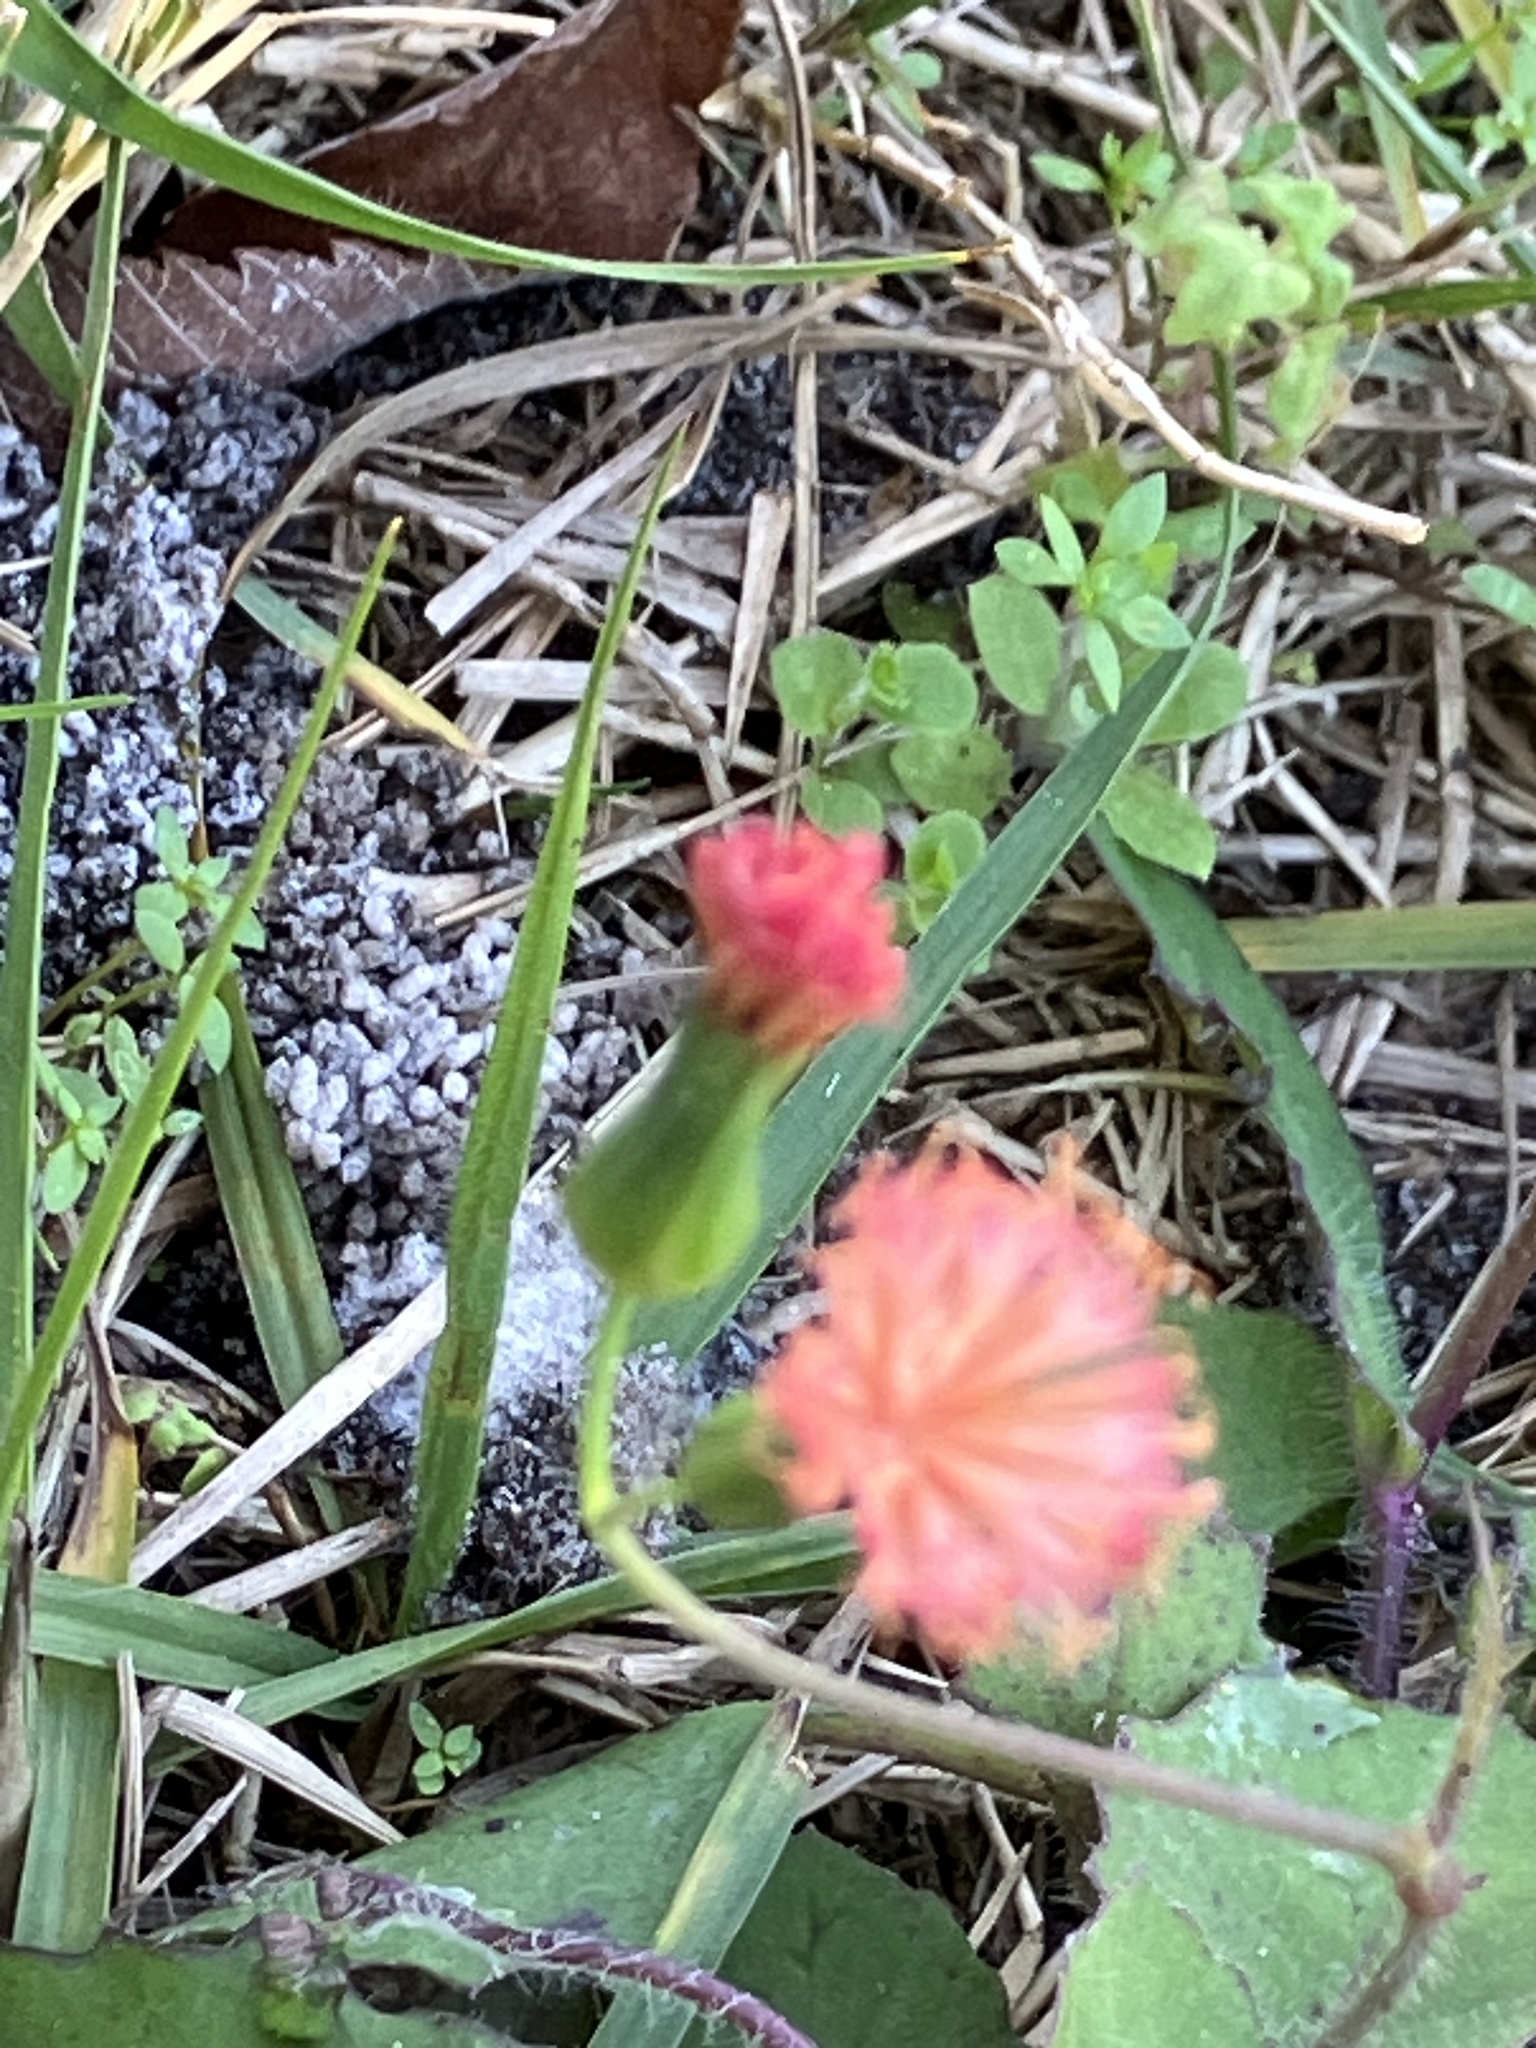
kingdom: Plantae
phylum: Tracheophyta
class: Magnoliopsida
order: Asterales
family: Asteraceae
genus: Emilia
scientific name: Emilia fosbergii
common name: Florida tasselflower
